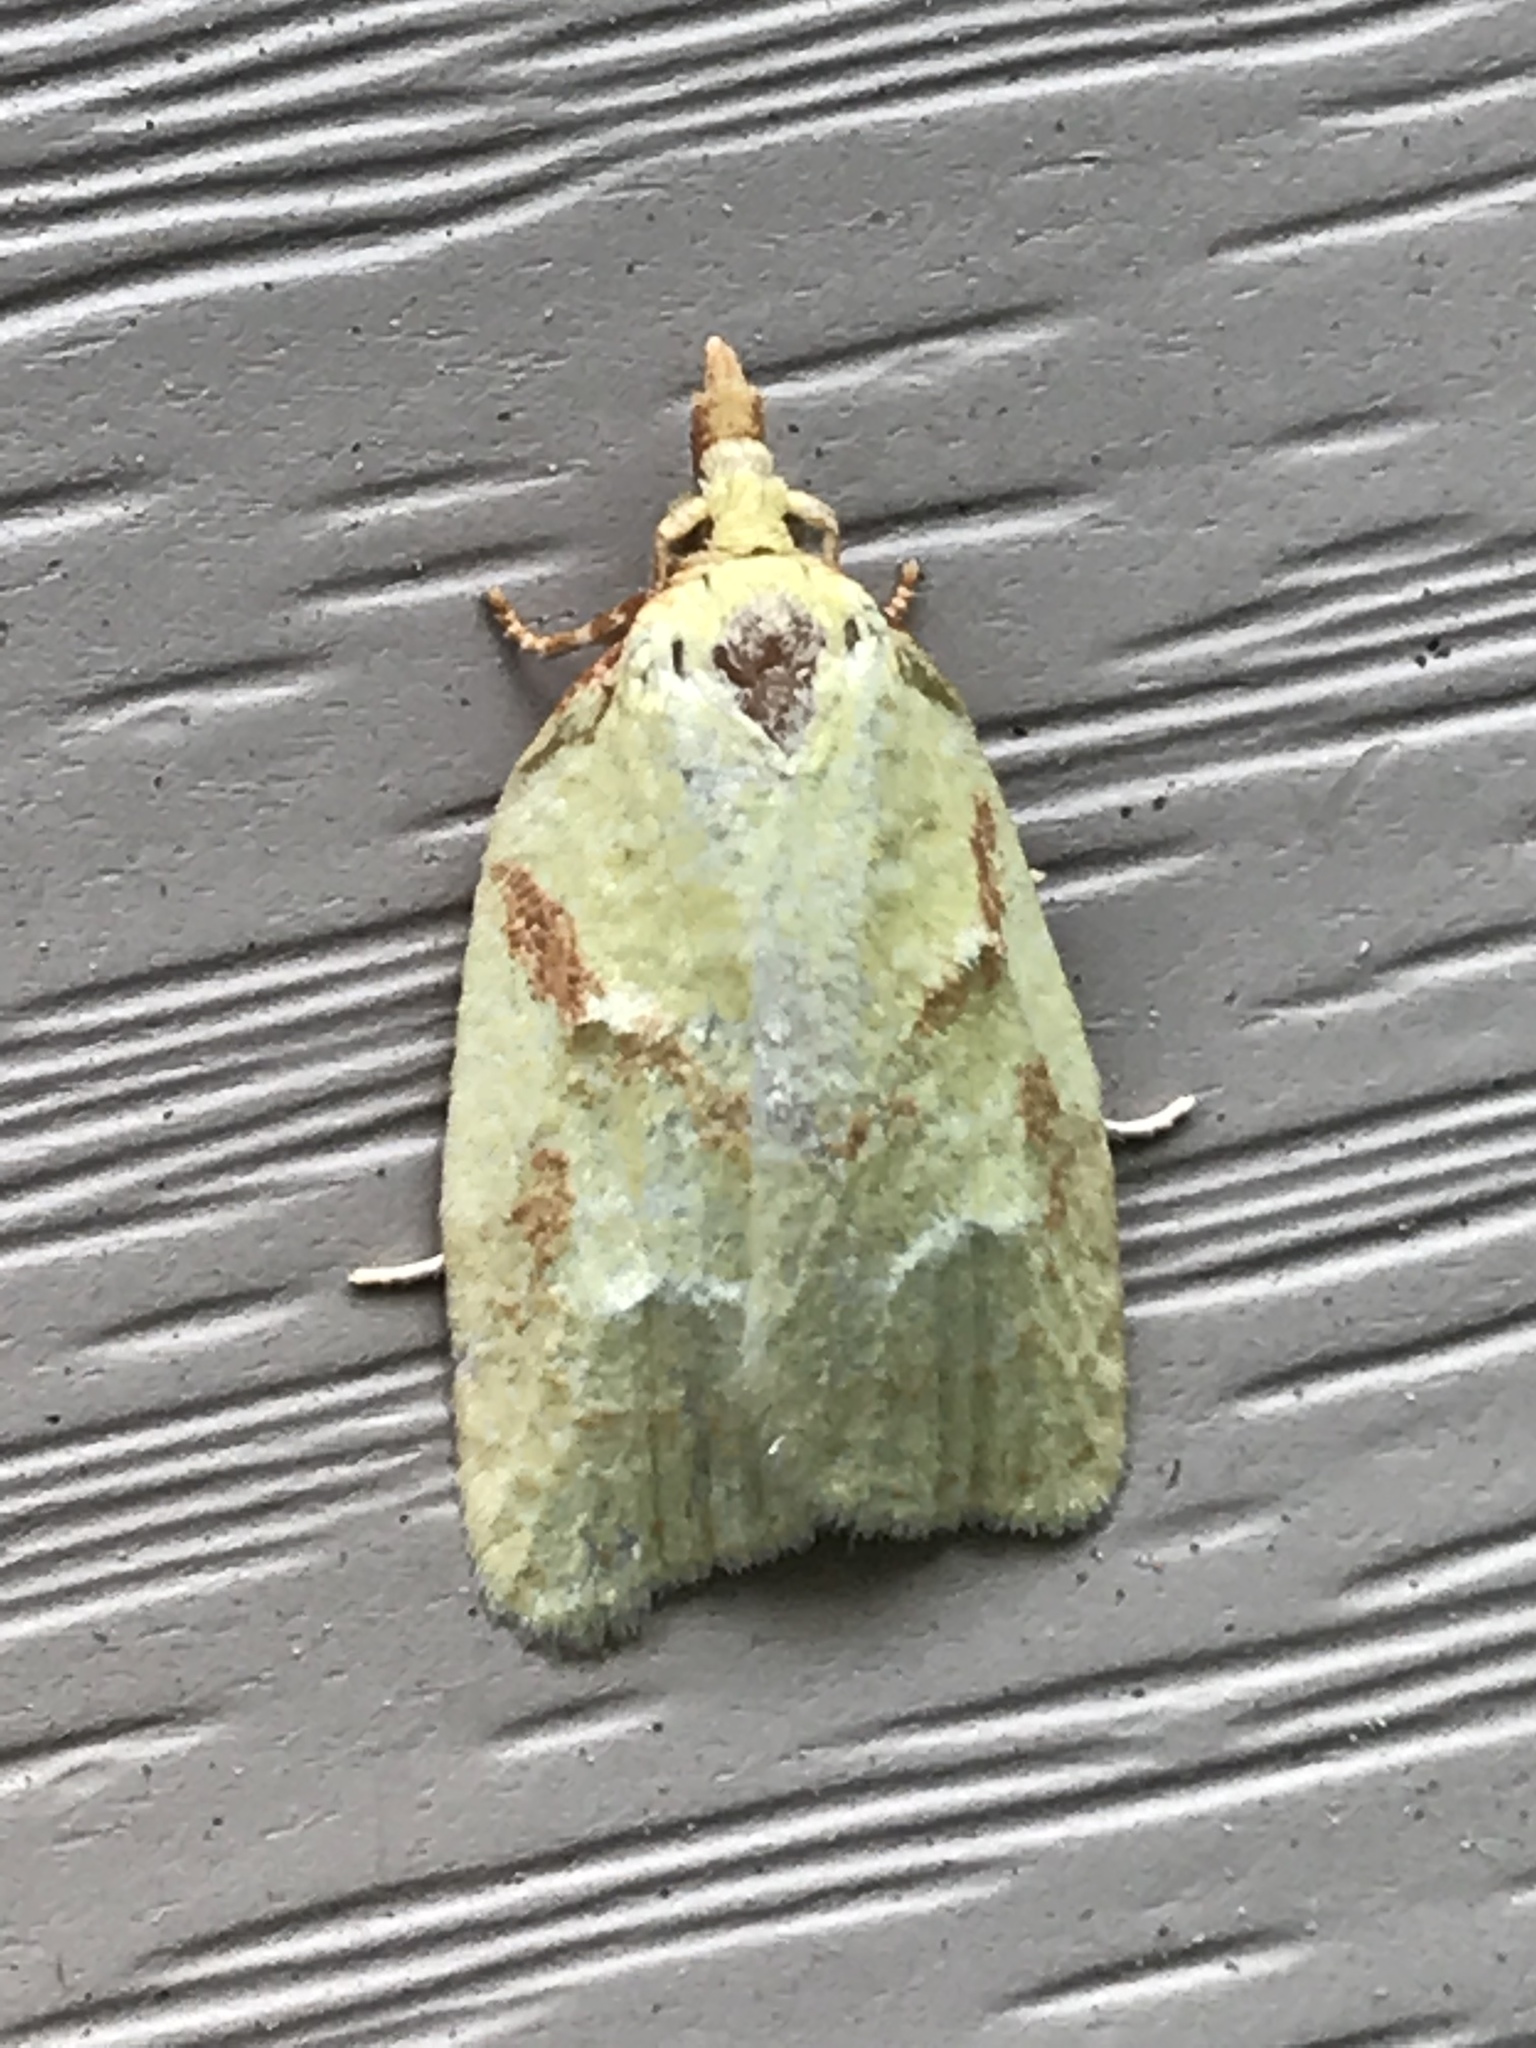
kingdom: Animalia
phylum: Arthropoda
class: Insecta
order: Lepidoptera
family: Tortricidae
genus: Cenopis
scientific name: Cenopis pettitana
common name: Maple-basswood leafroller moth
